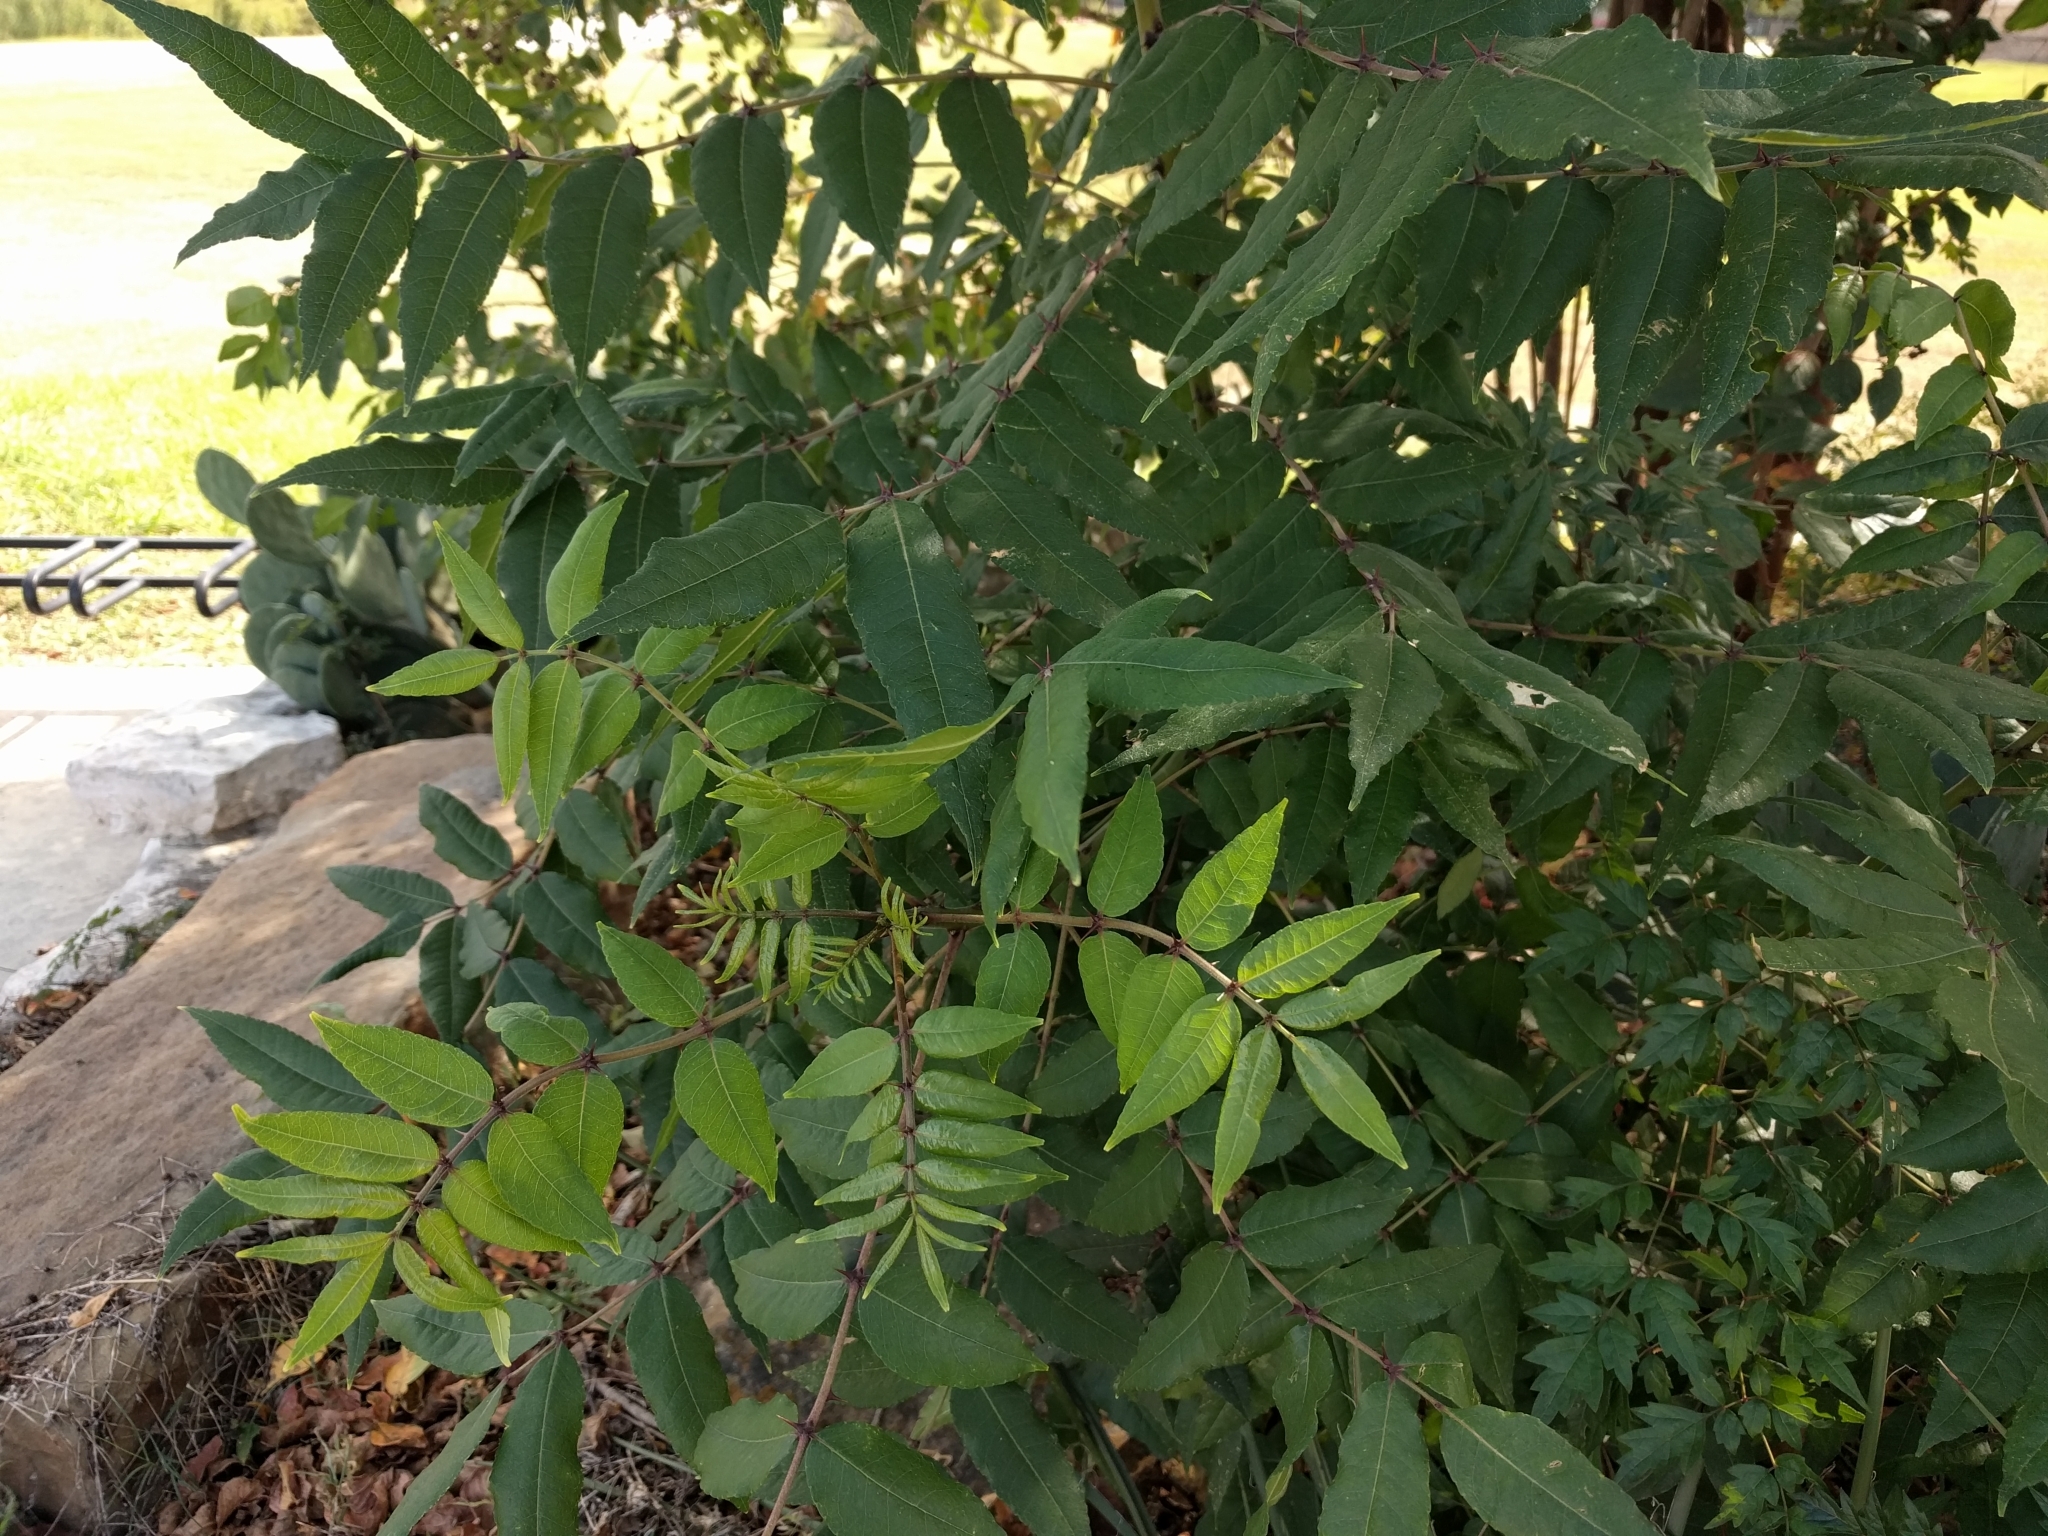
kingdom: Plantae
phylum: Tracheophyta
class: Magnoliopsida
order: Sapindales
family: Rutaceae
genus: Zanthoxylum
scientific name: Zanthoxylum clava-herculis
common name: Hercules'-club
